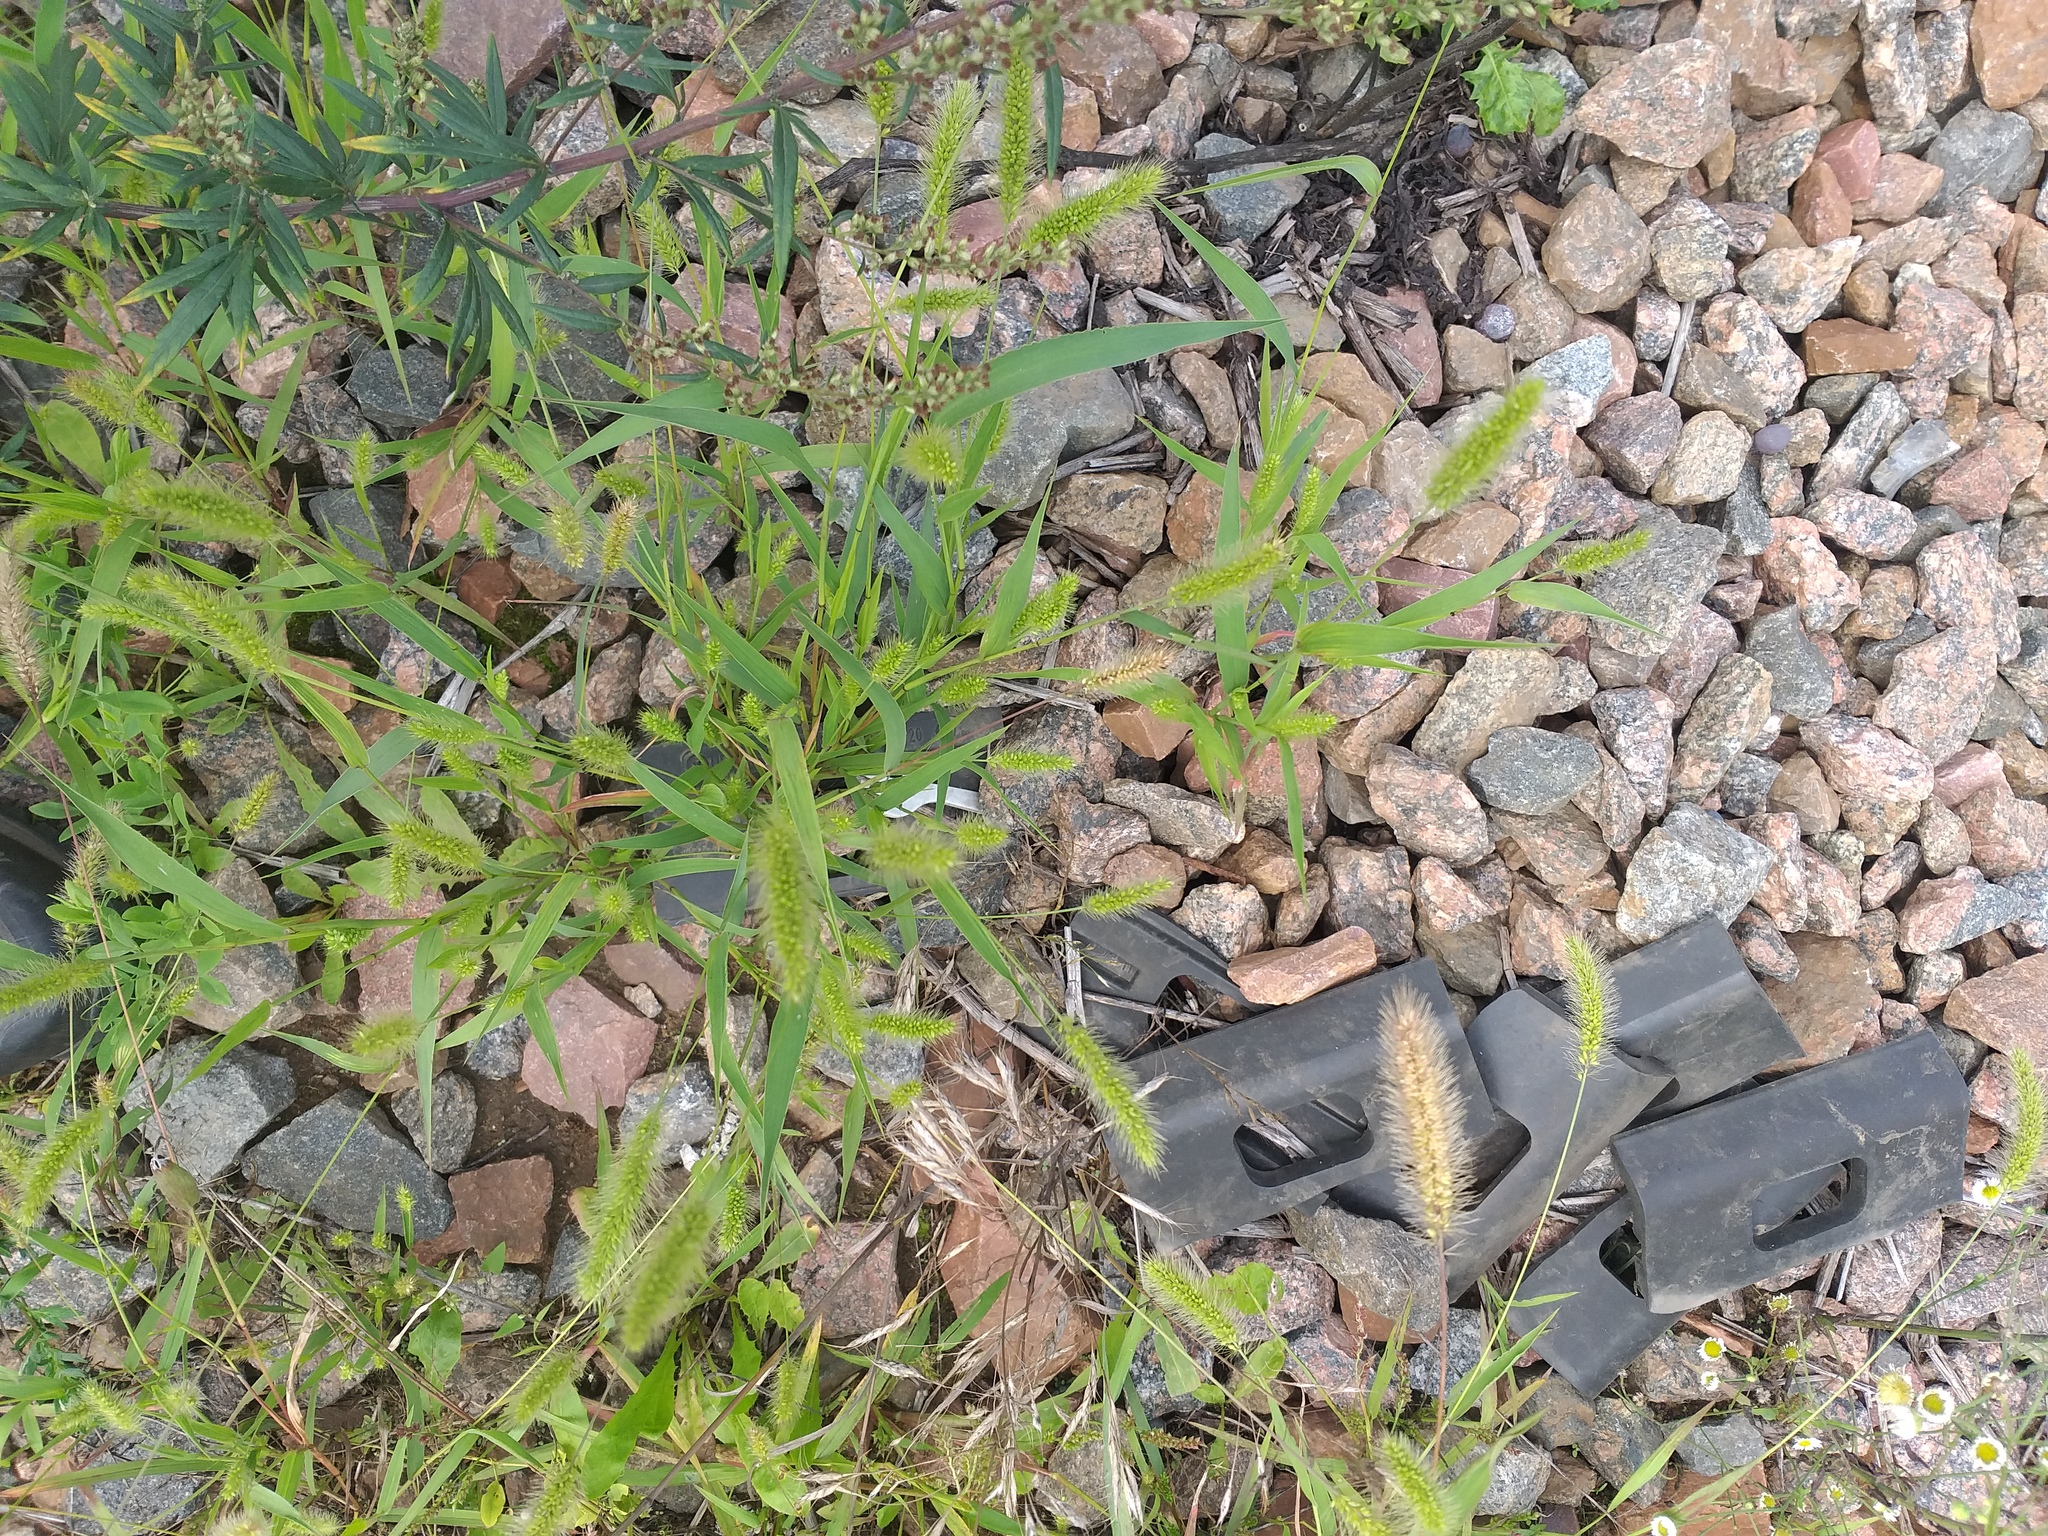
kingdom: Plantae
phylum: Tracheophyta
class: Liliopsida
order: Poales
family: Poaceae
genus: Setaria
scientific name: Setaria viridis
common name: Green bristlegrass
